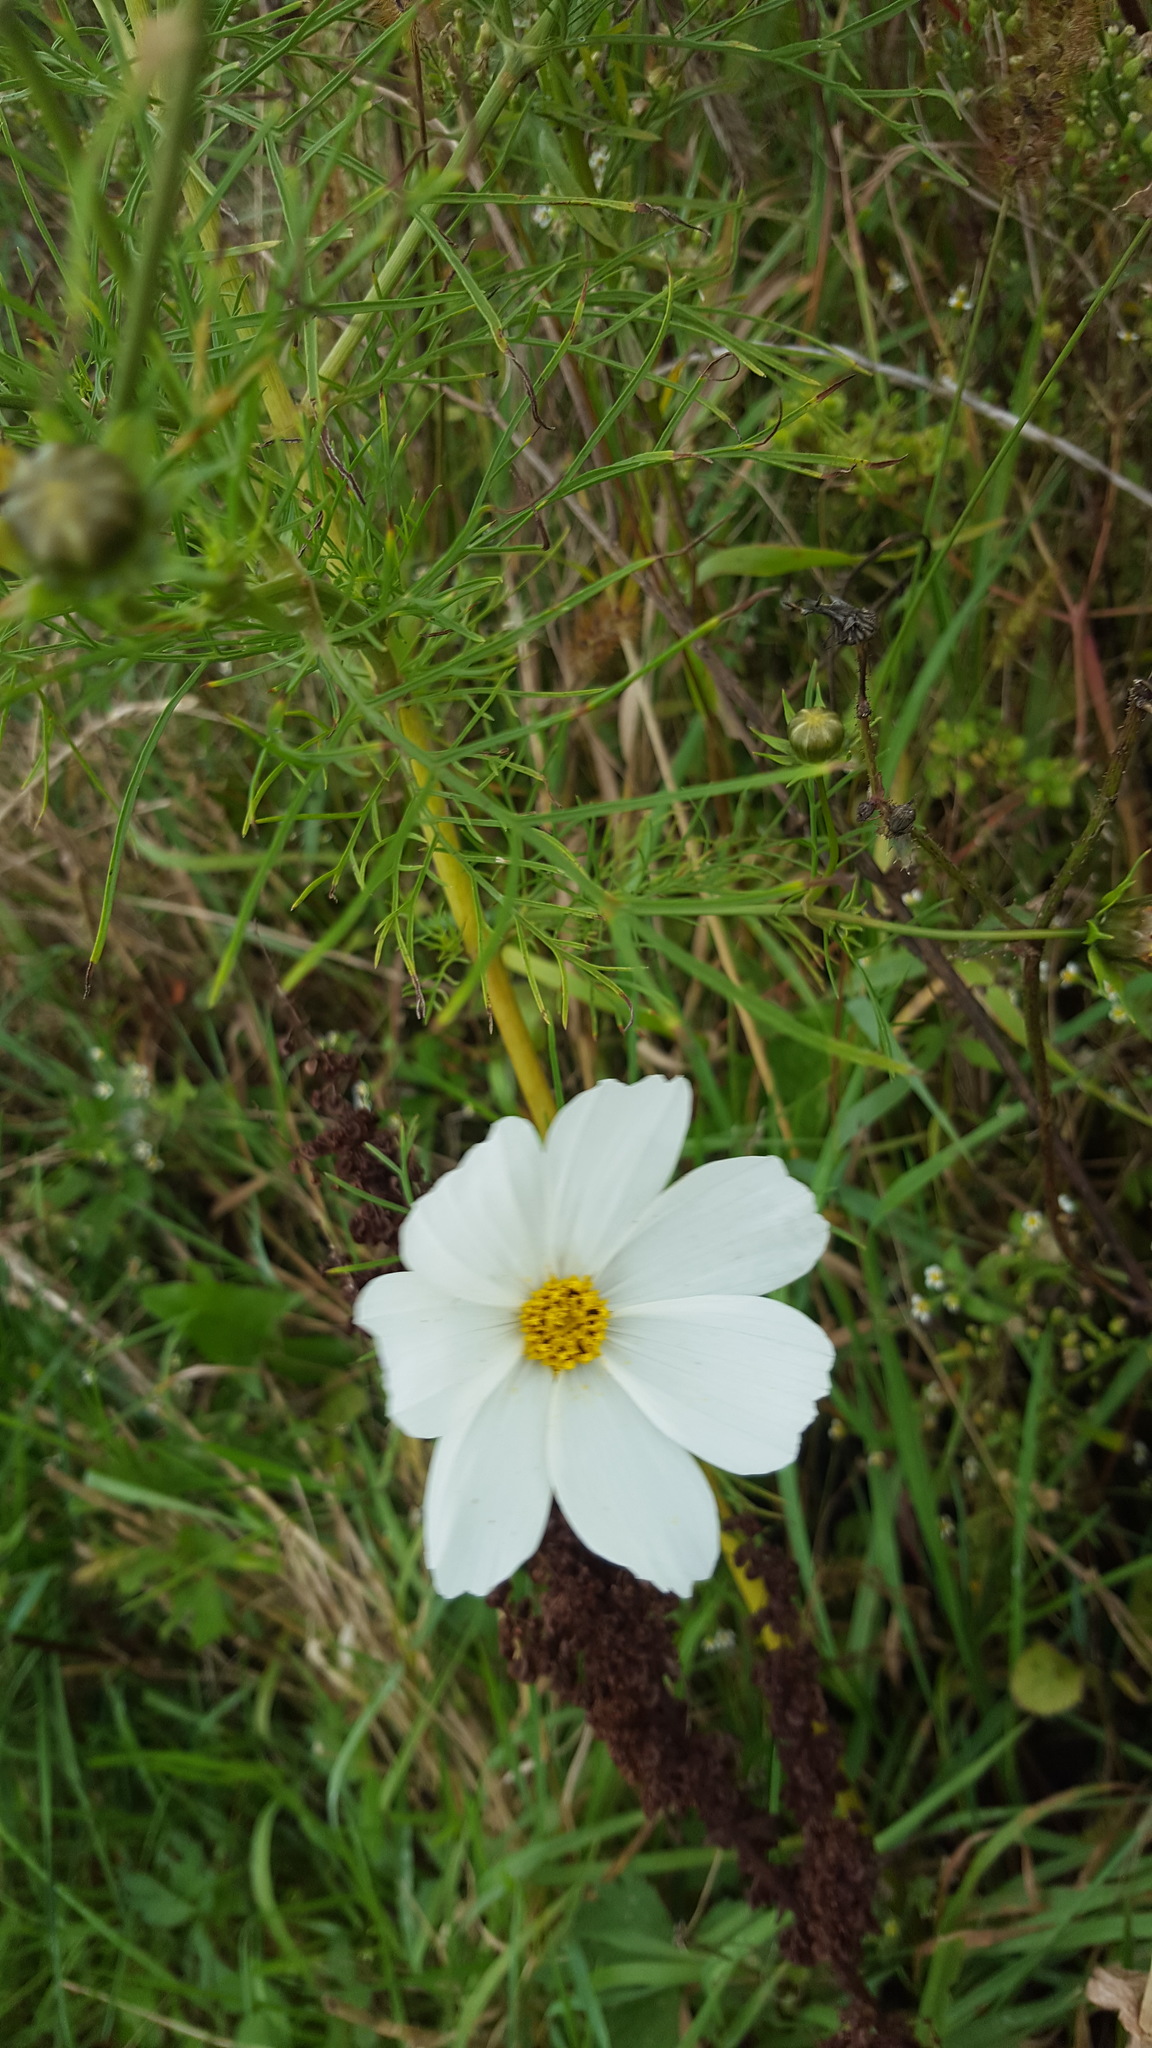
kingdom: Plantae
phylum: Tracheophyta
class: Magnoliopsida
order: Asterales
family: Asteraceae
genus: Cosmos
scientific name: Cosmos bipinnatus
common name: Garden cosmos
